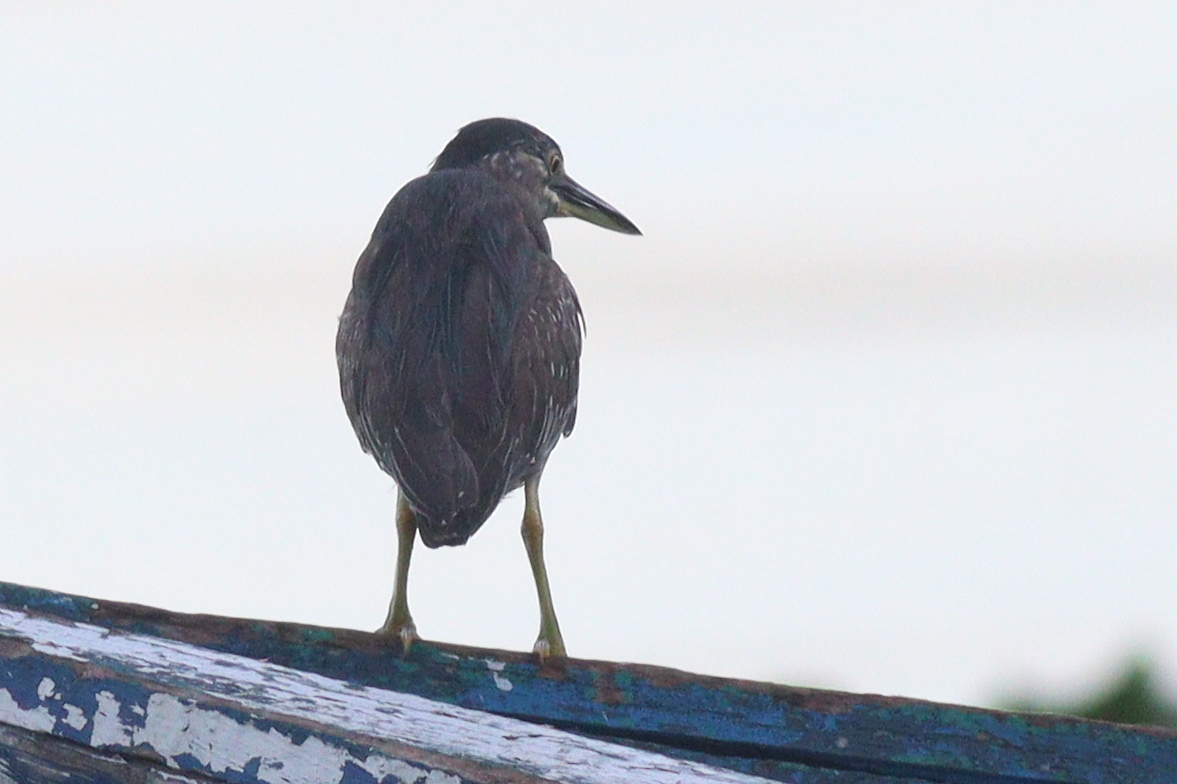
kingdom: Animalia
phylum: Chordata
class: Aves
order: Pelecaniformes
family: Ardeidae
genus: Butorides
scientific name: Butorides striata
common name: Striated heron
